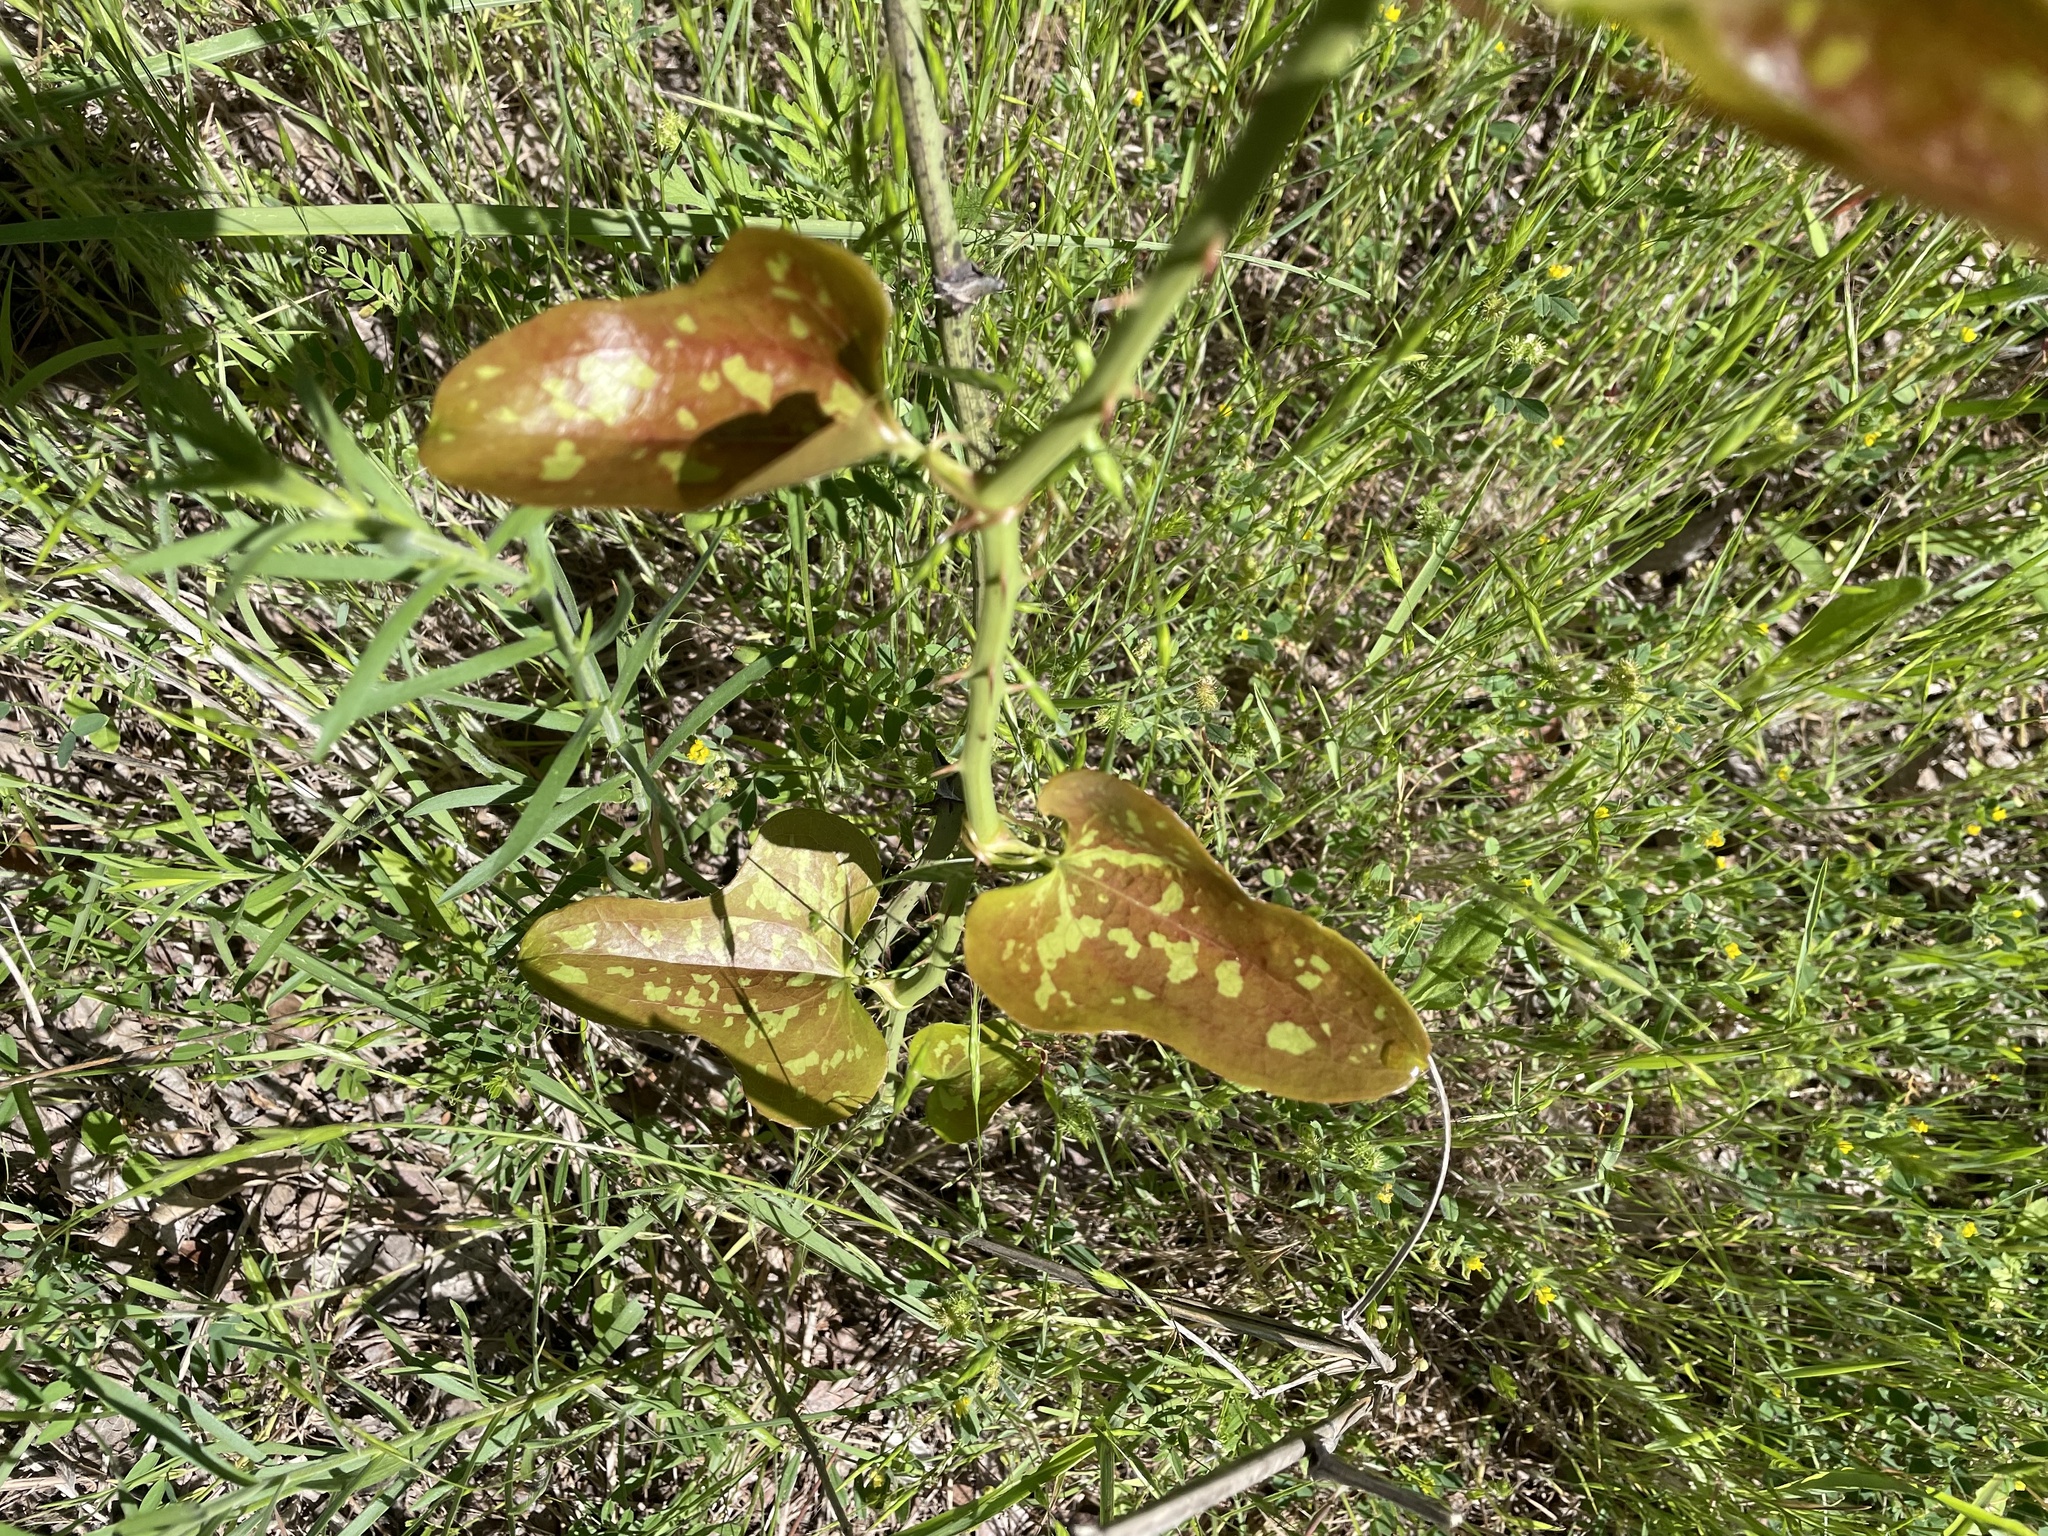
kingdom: Plantae
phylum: Tracheophyta
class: Liliopsida
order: Liliales
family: Smilacaceae
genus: Smilax
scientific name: Smilax bona-nox
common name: Catbrier
